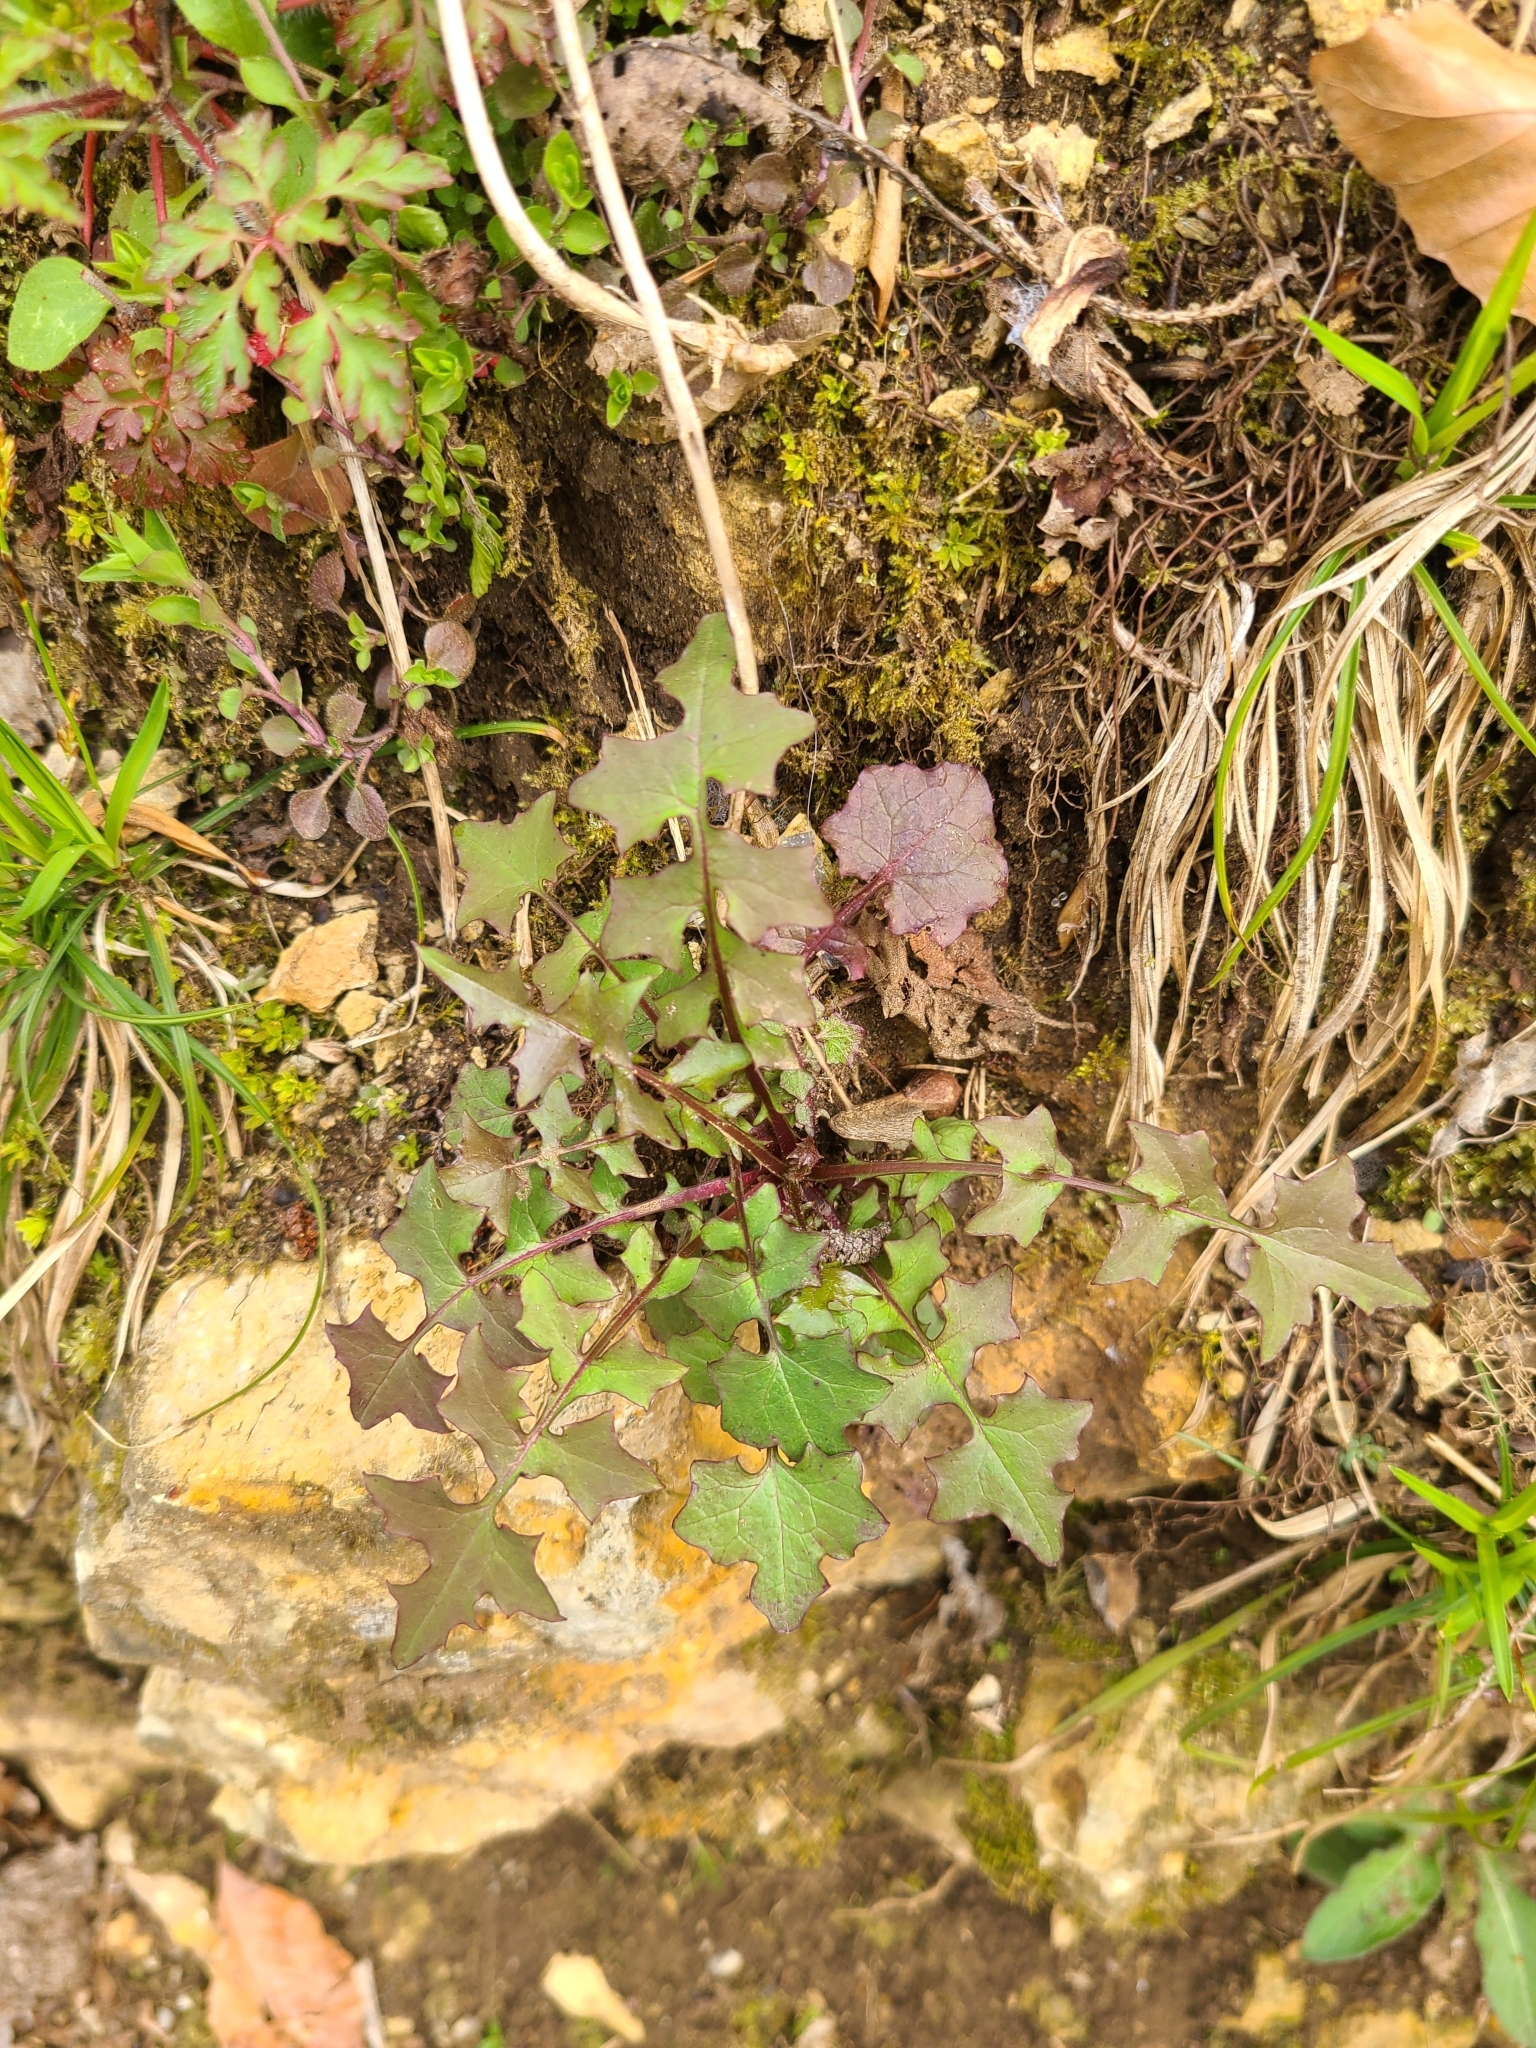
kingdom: Plantae
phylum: Tracheophyta
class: Magnoliopsida
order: Asterales
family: Asteraceae
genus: Mycelis
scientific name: Mycelis muralis
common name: Wall lettuce
